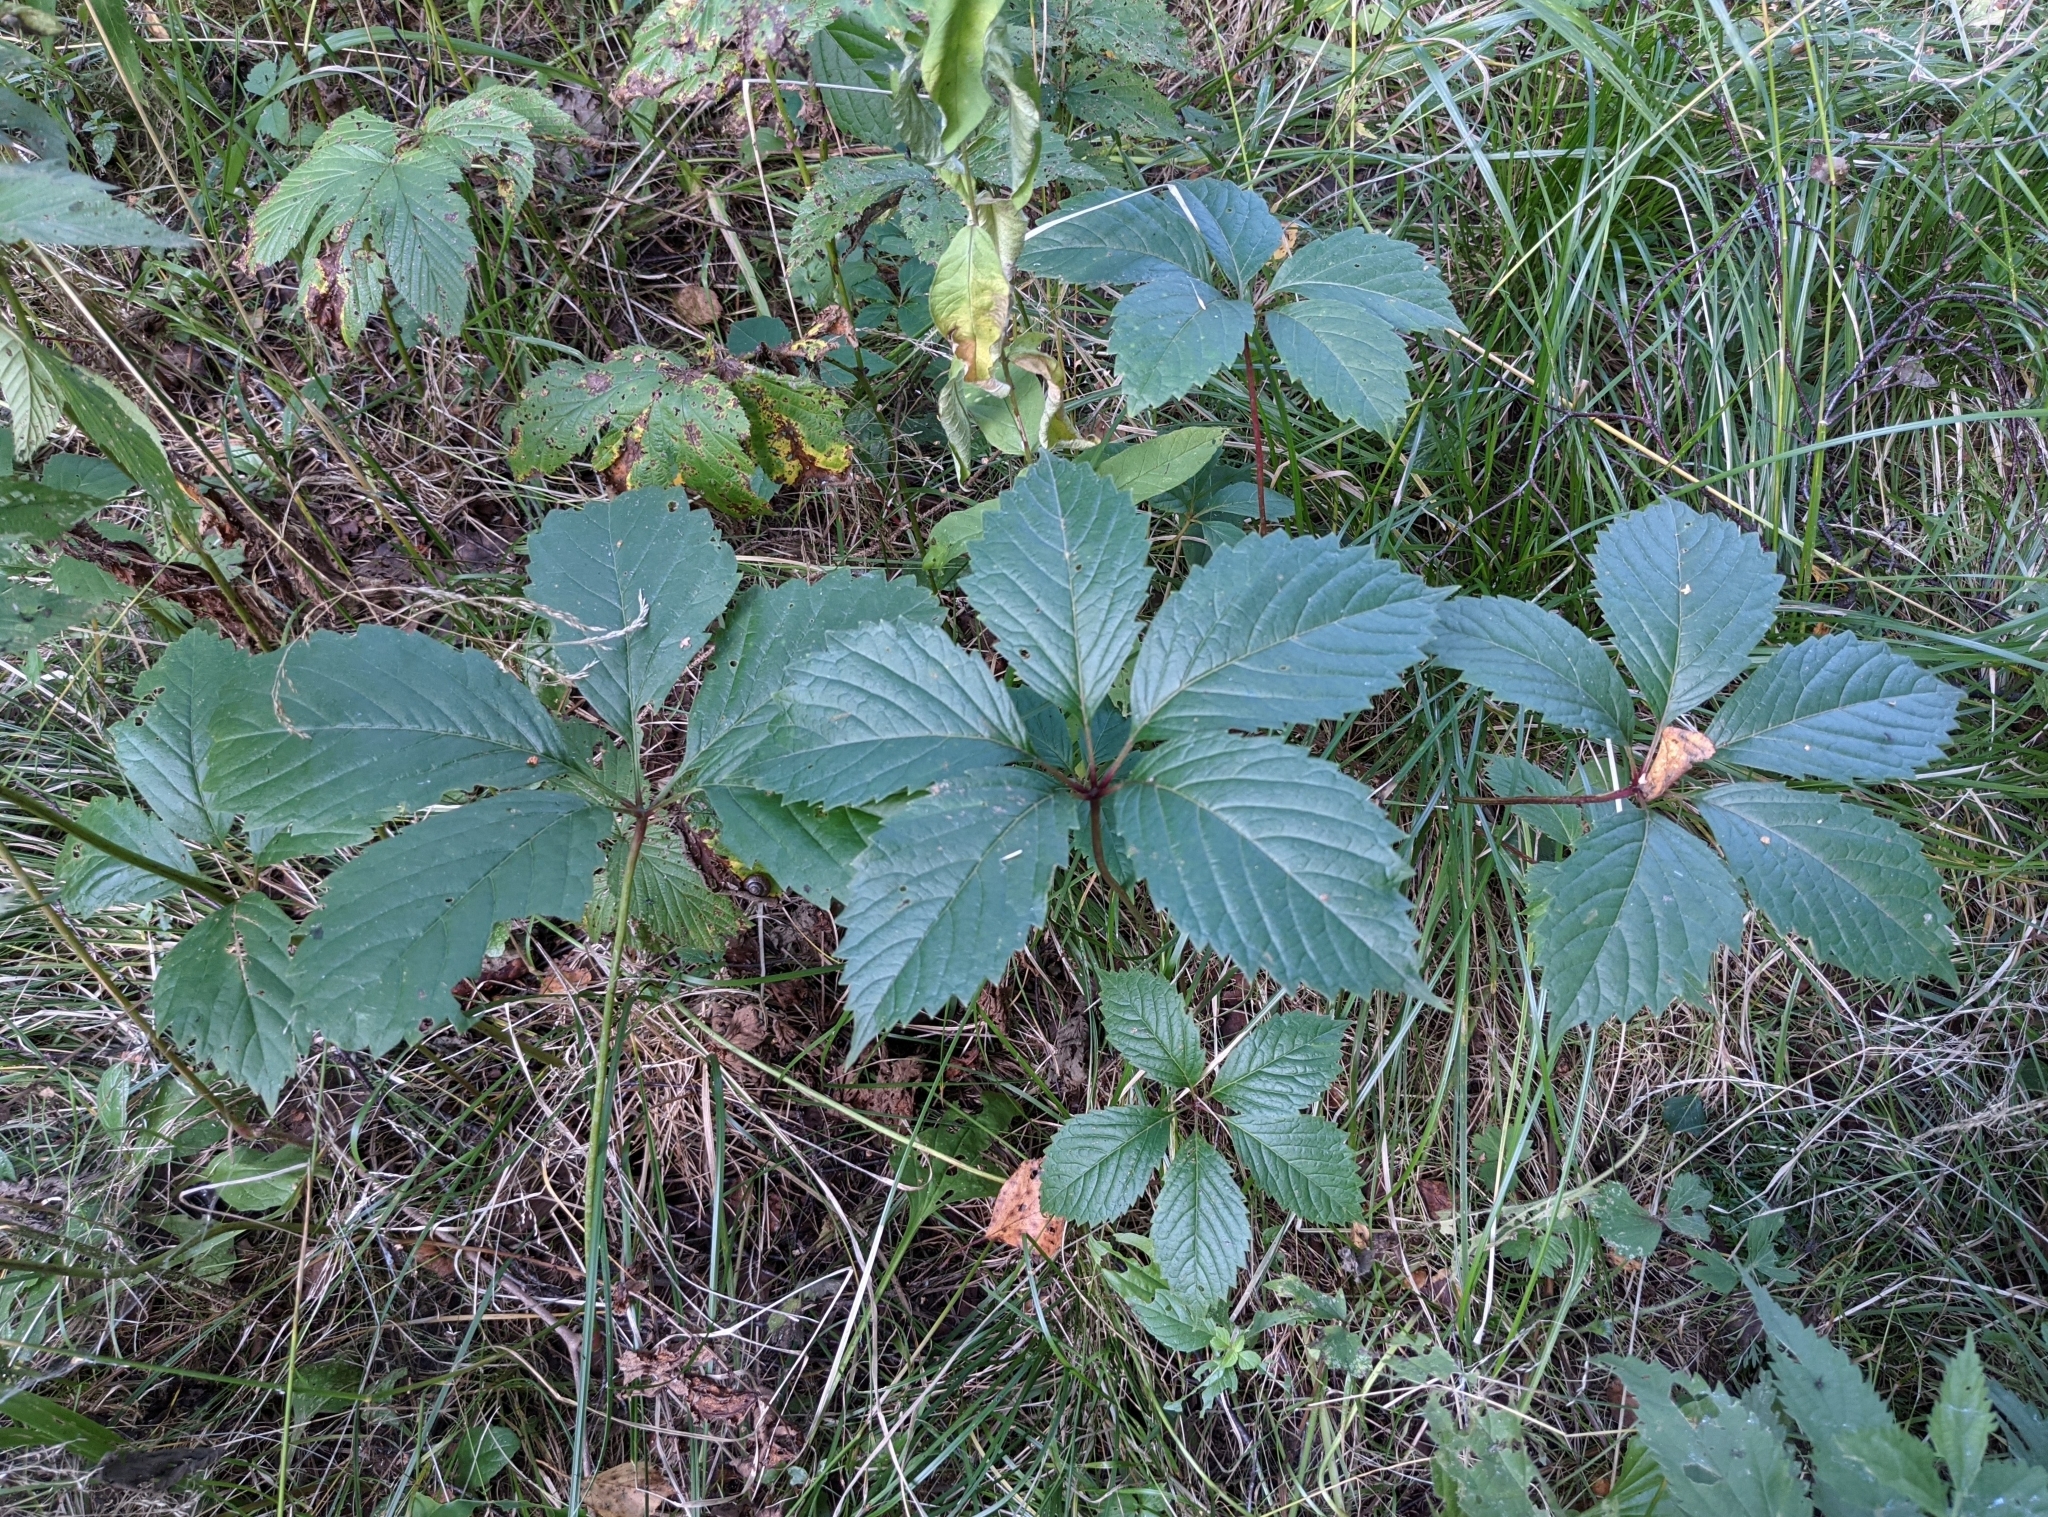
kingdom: Plantae
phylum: Tracheophyta
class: Magnoliopsida
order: Vitales
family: Vitaceae
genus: Parthenocissus
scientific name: Parthenocissus inserta
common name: False virginia-creeper
